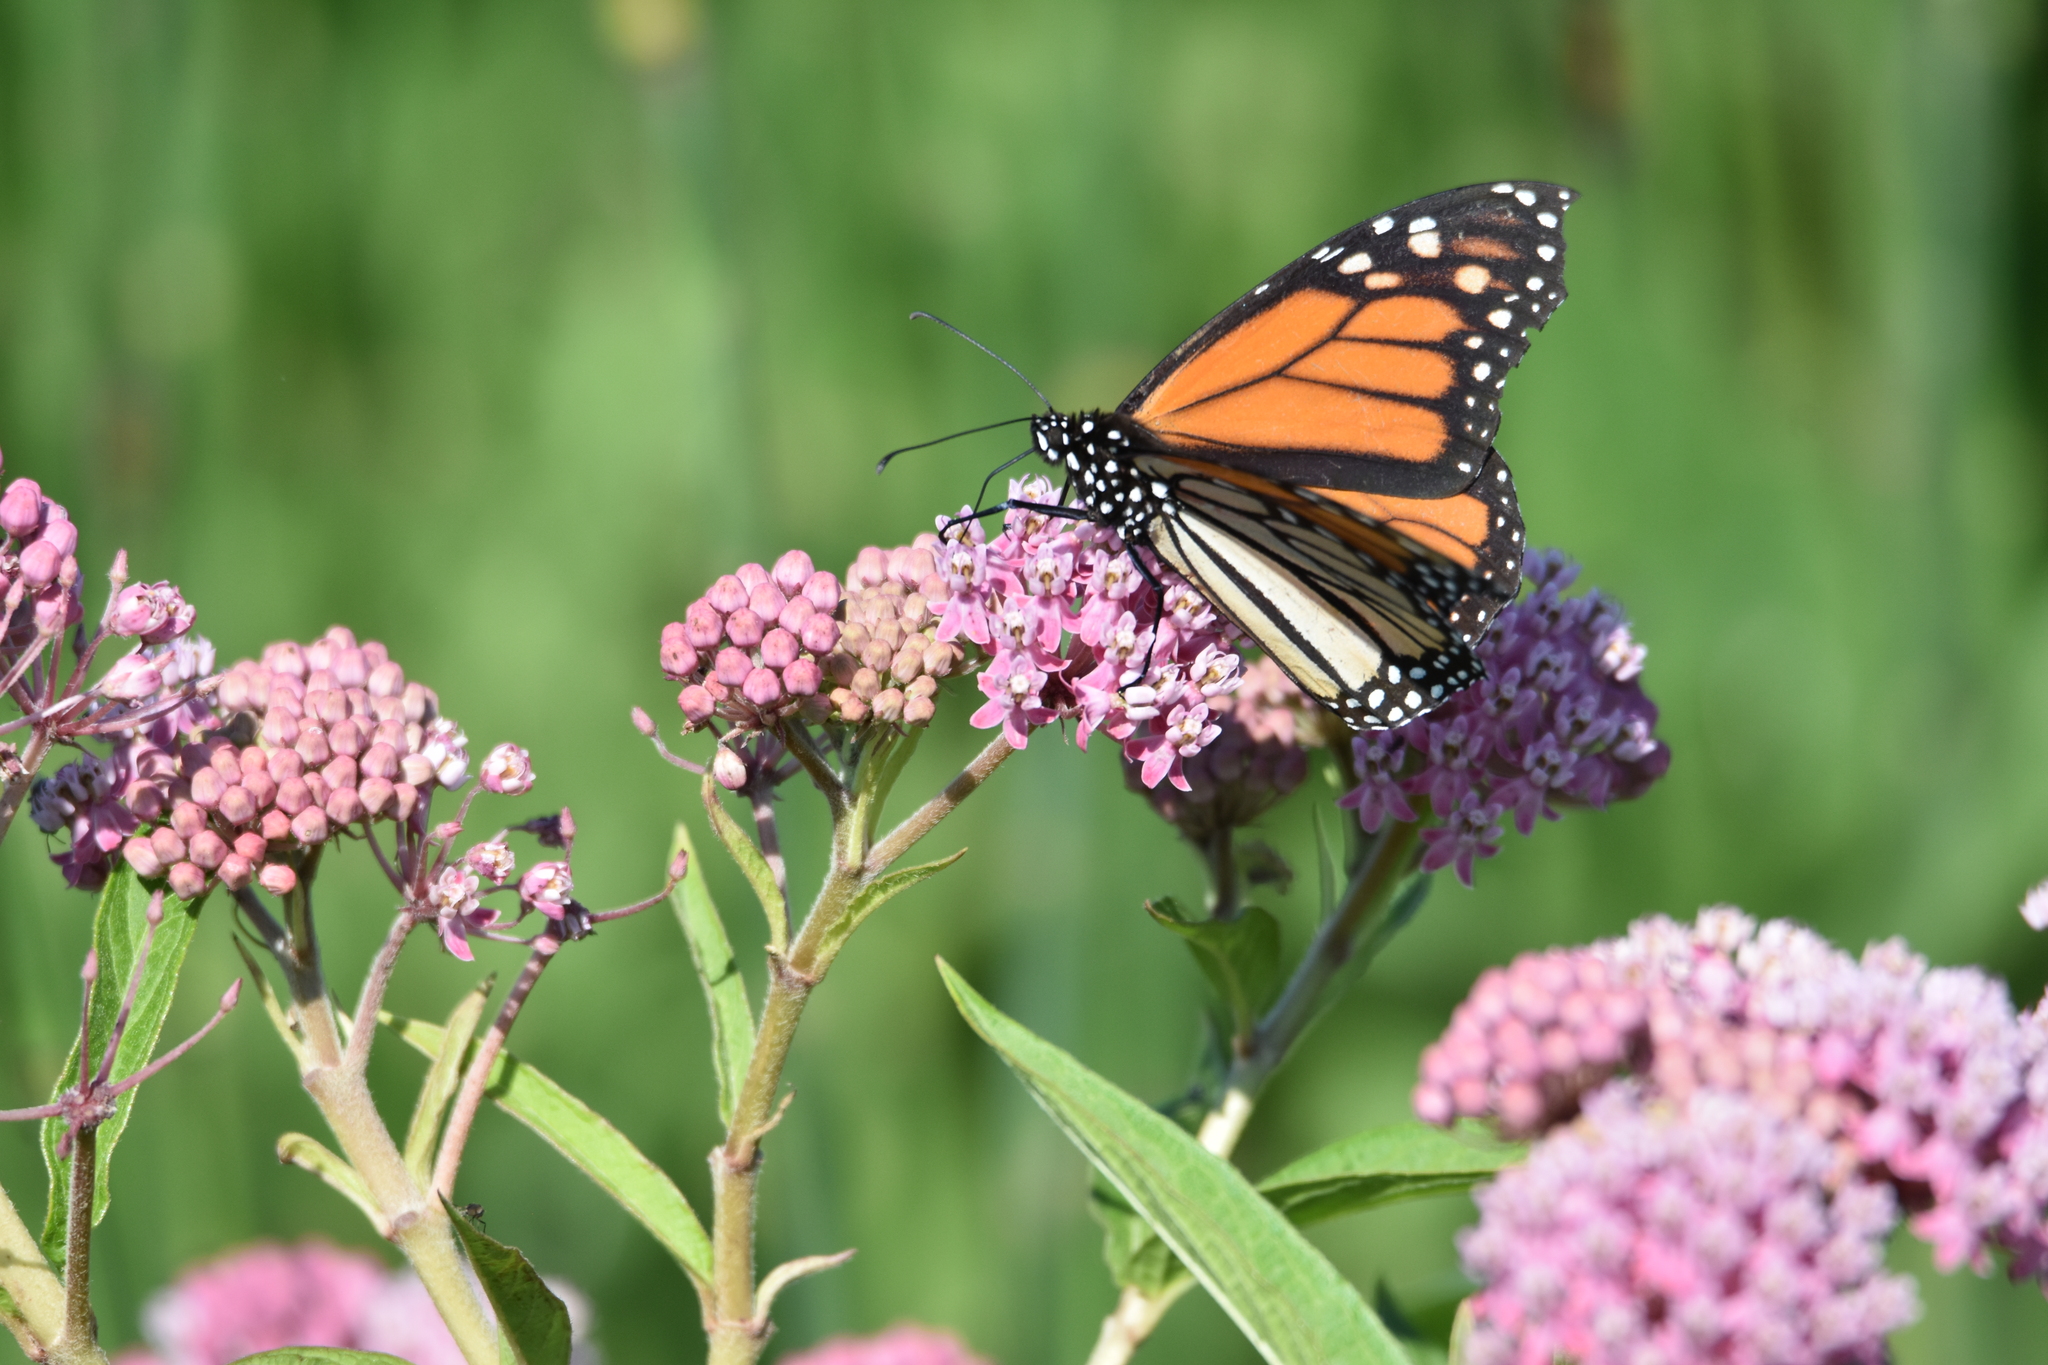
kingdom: Animalia
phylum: Arthropoda
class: Insecta
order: Lepidoptera
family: Nymphalidae
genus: Danaus
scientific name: Danaus plexippus
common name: Monarch
